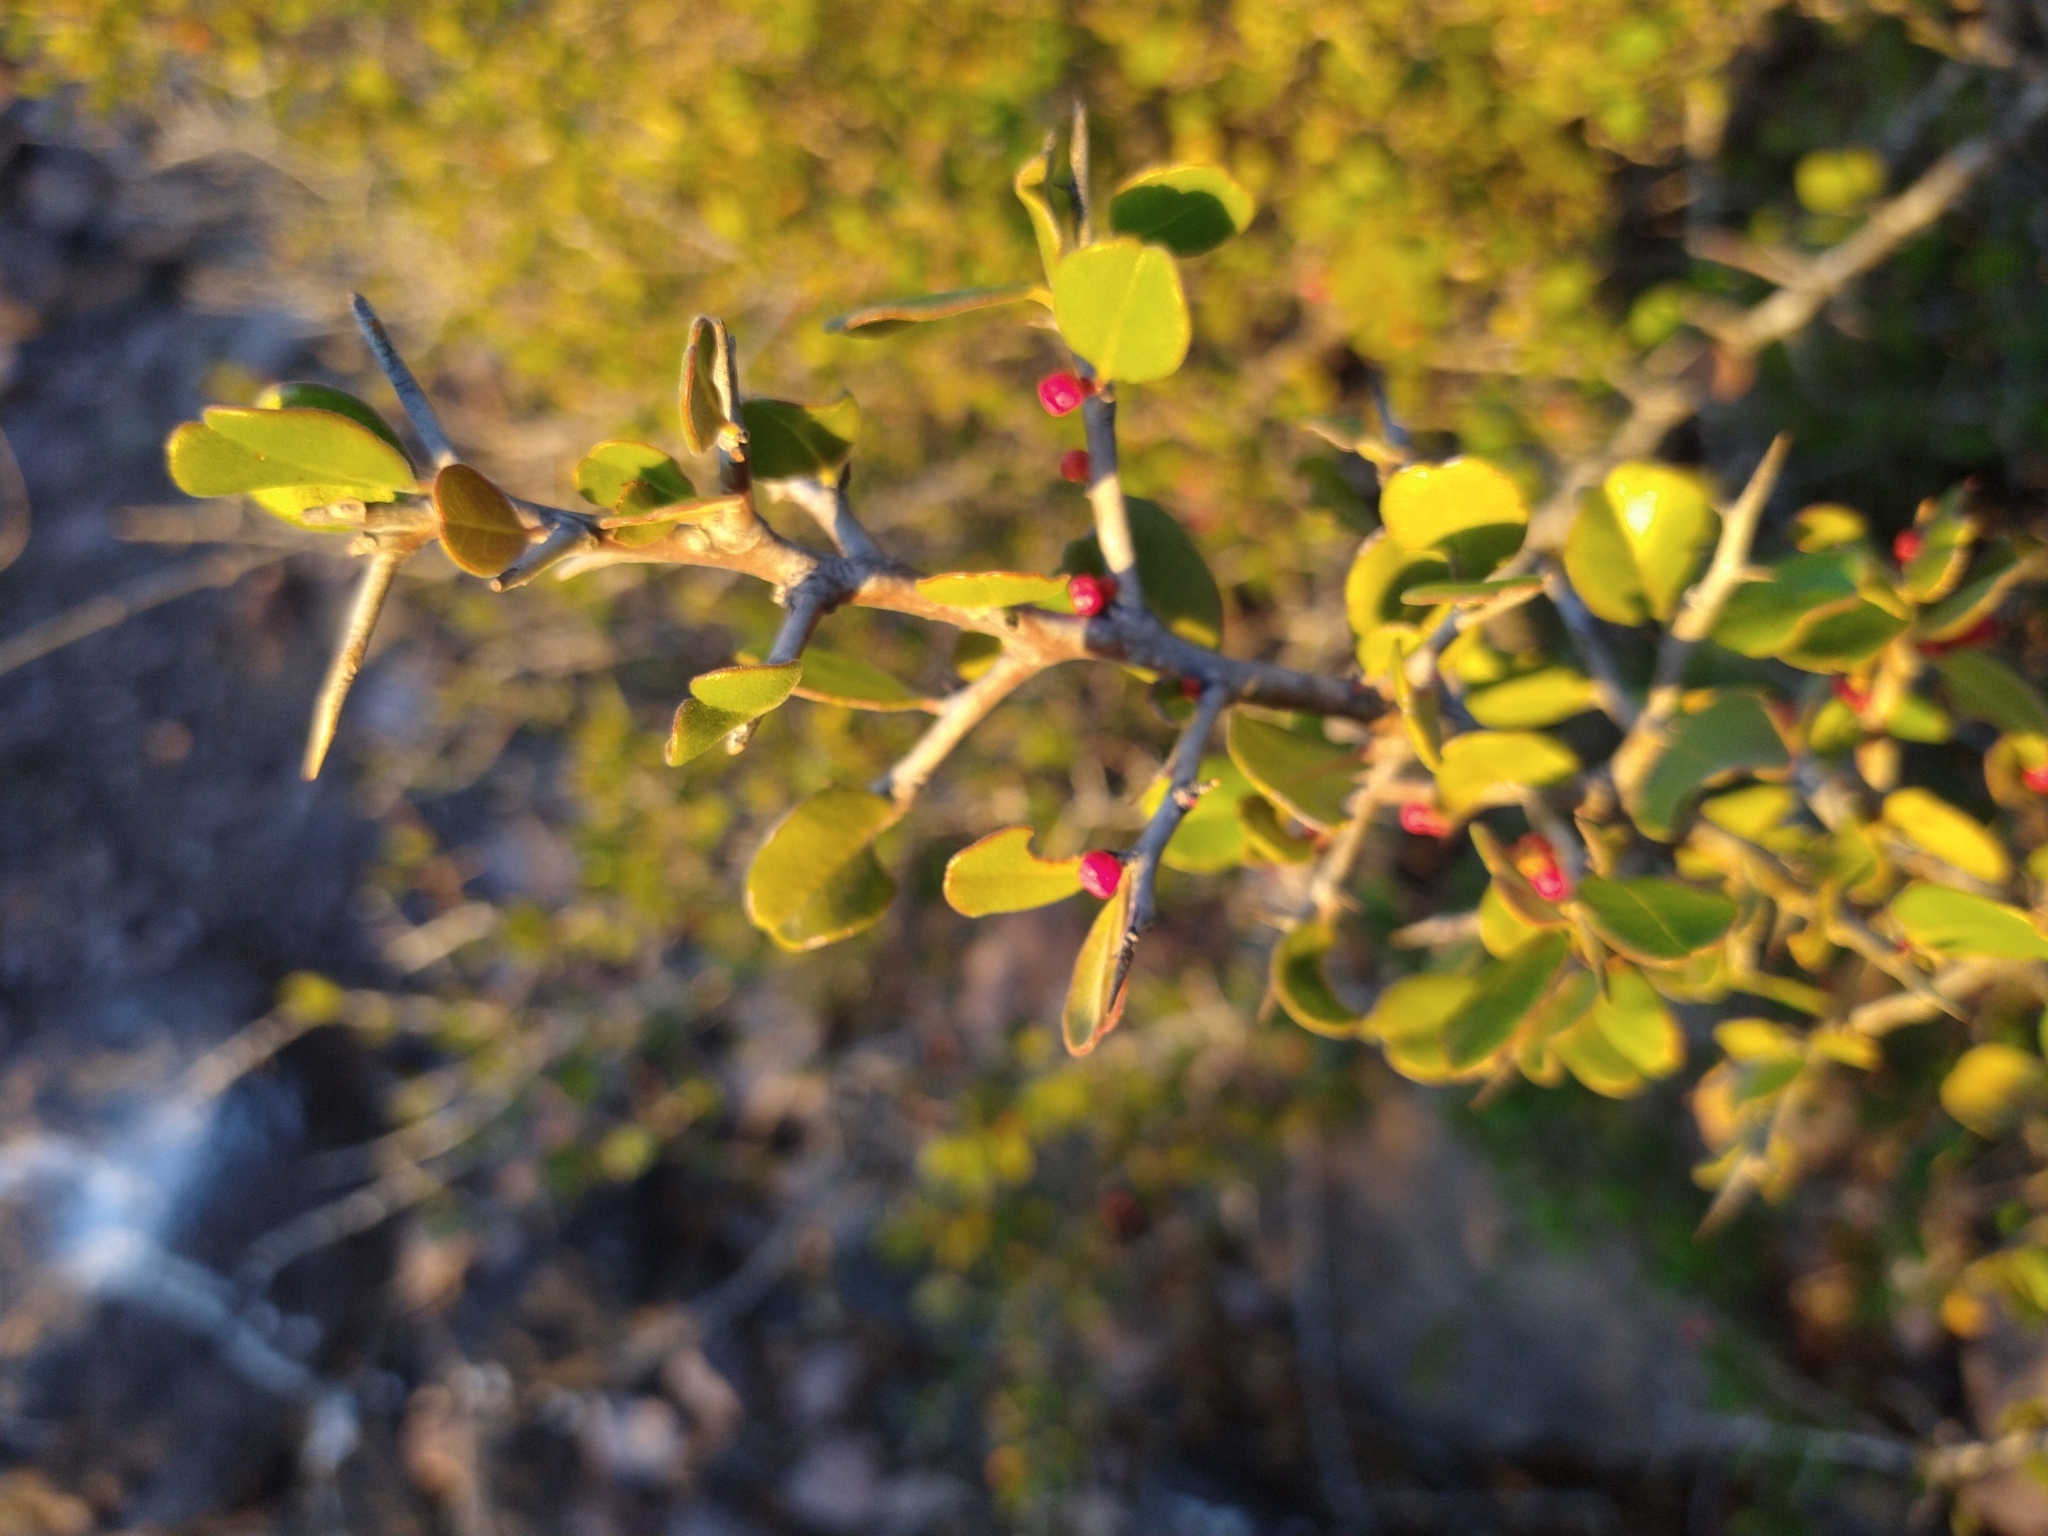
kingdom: Plantae
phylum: Tracheophyta
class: Magnoliopsida
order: Sapindales
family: Simaroubaceae
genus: Castela
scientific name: Castela peninsularis
